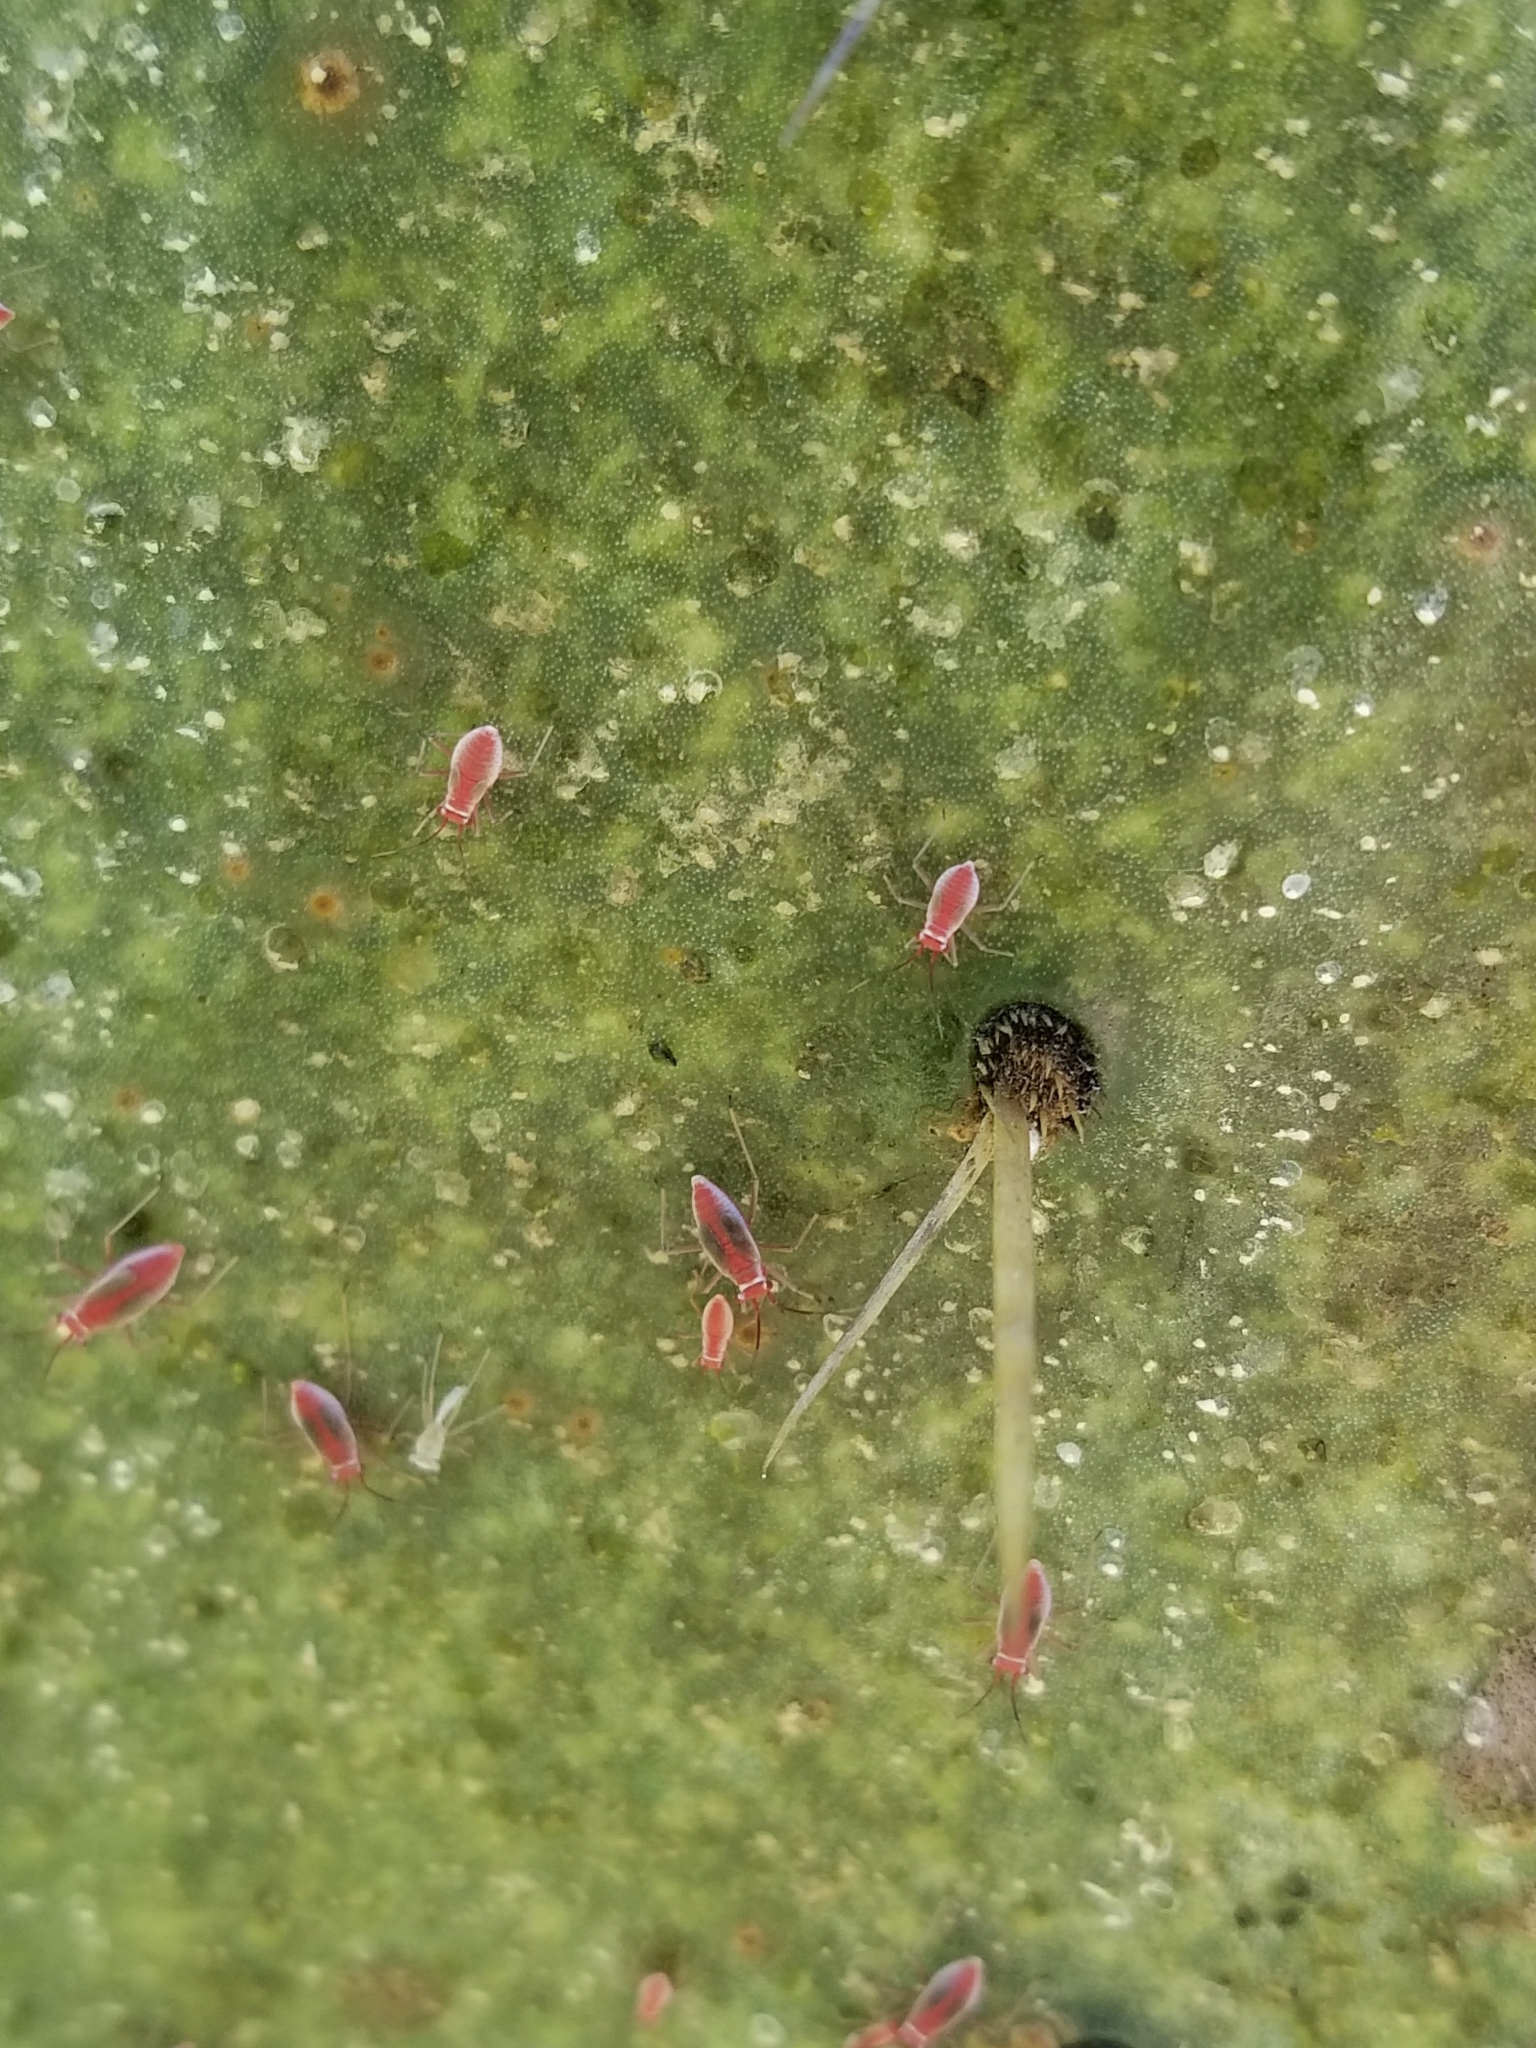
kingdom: Animalia
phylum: Arthropoda
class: Insecta
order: Hemiptera
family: Miridae
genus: Hesperolabops
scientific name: Hesperolabops gelastops
